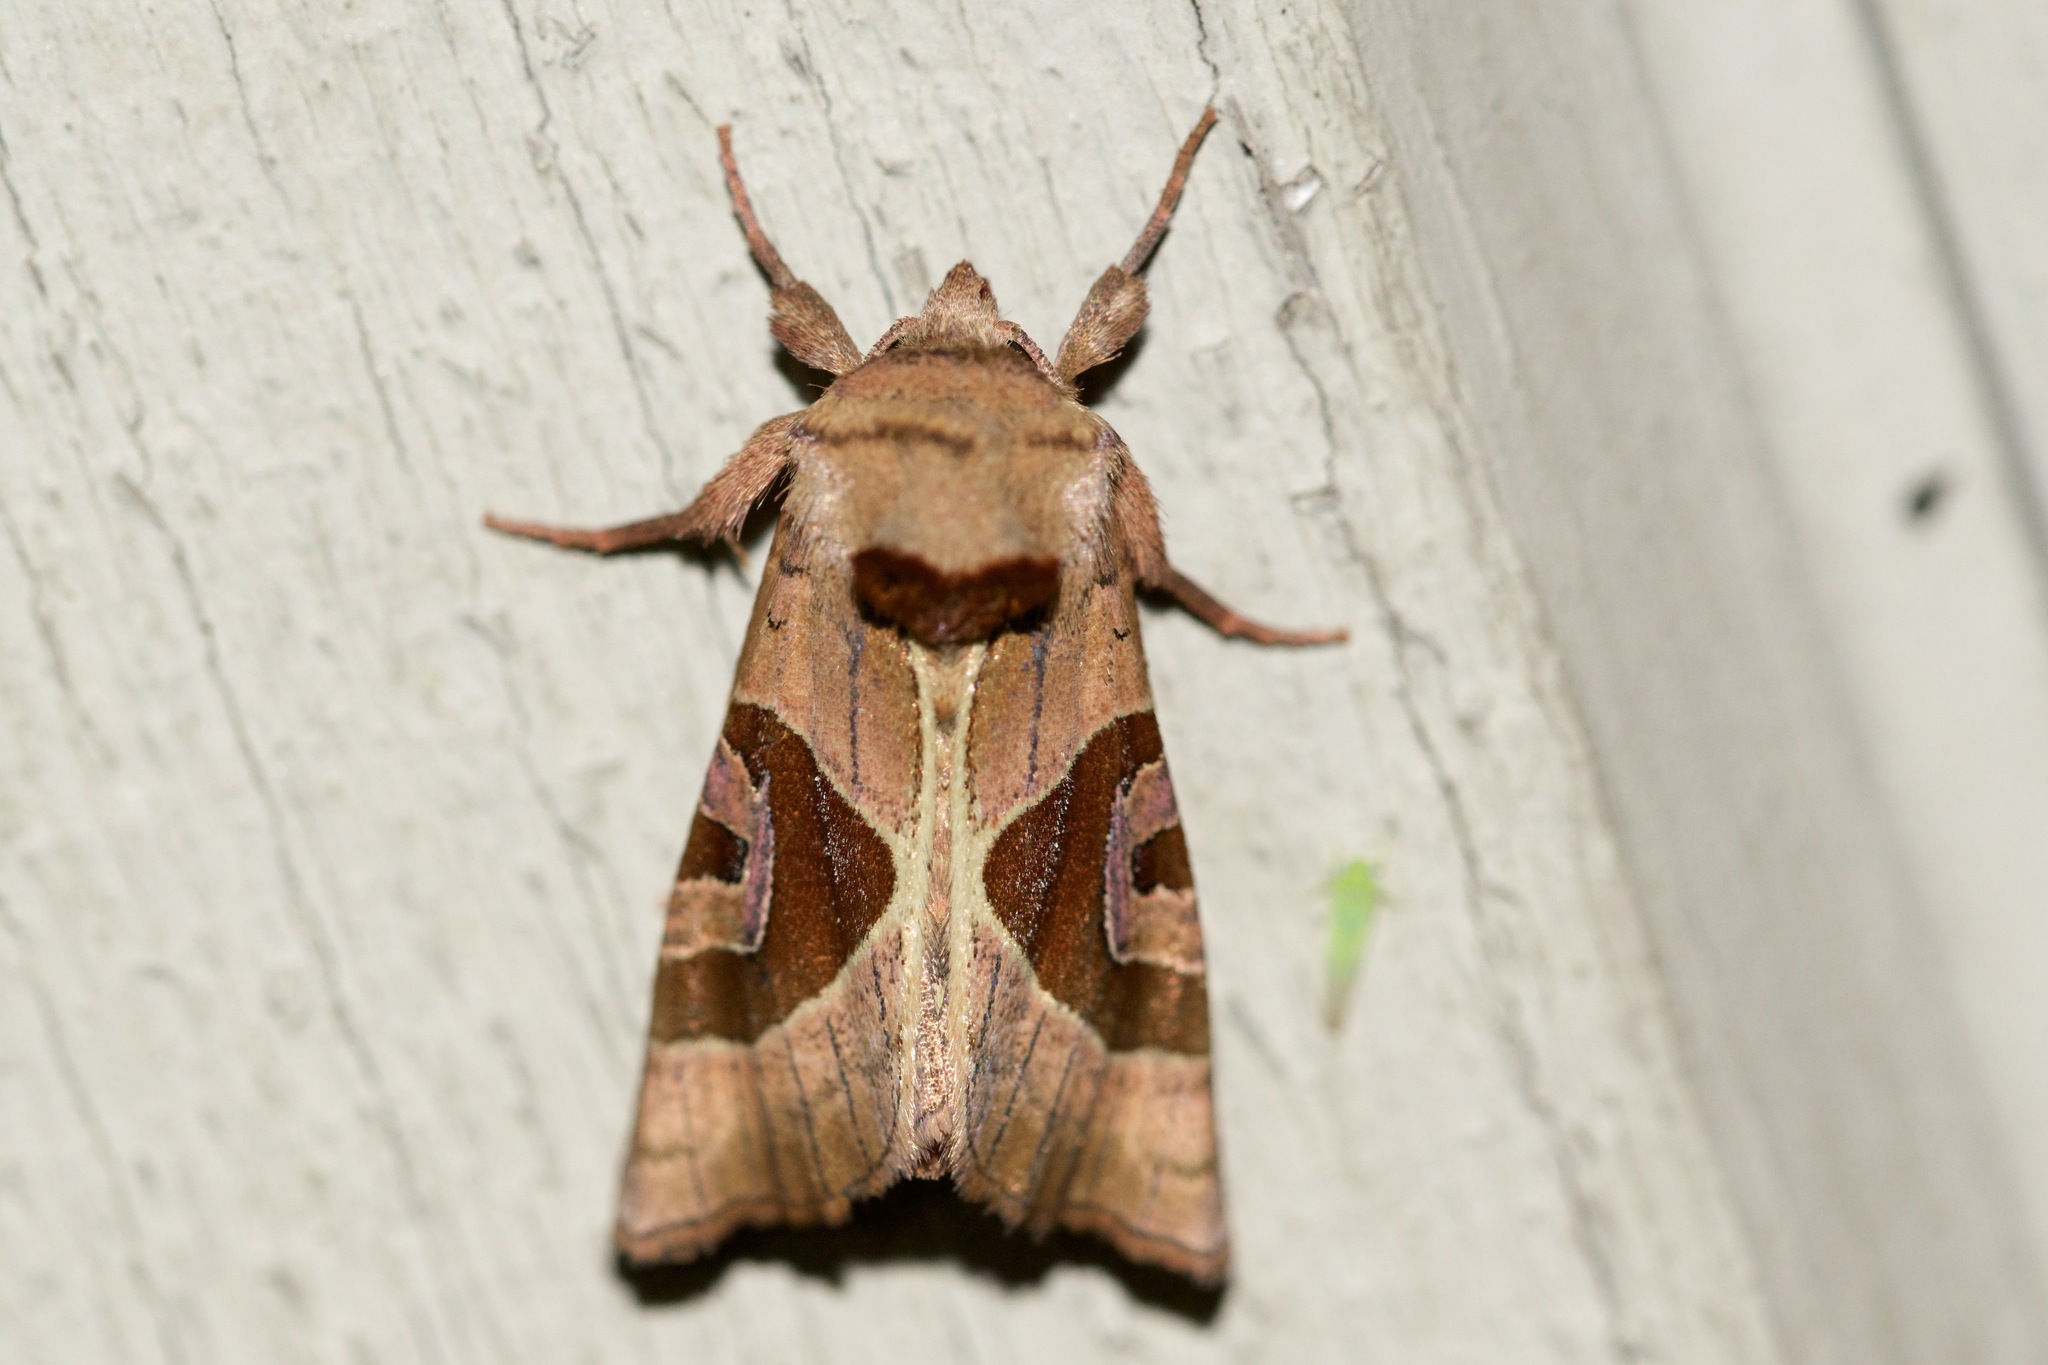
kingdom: Animalia
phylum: Arthropoda
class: Insecta
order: Lepidoptera
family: Noctuidae
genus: Conservula
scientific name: Conservula anodonta
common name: Sharp angle shades
